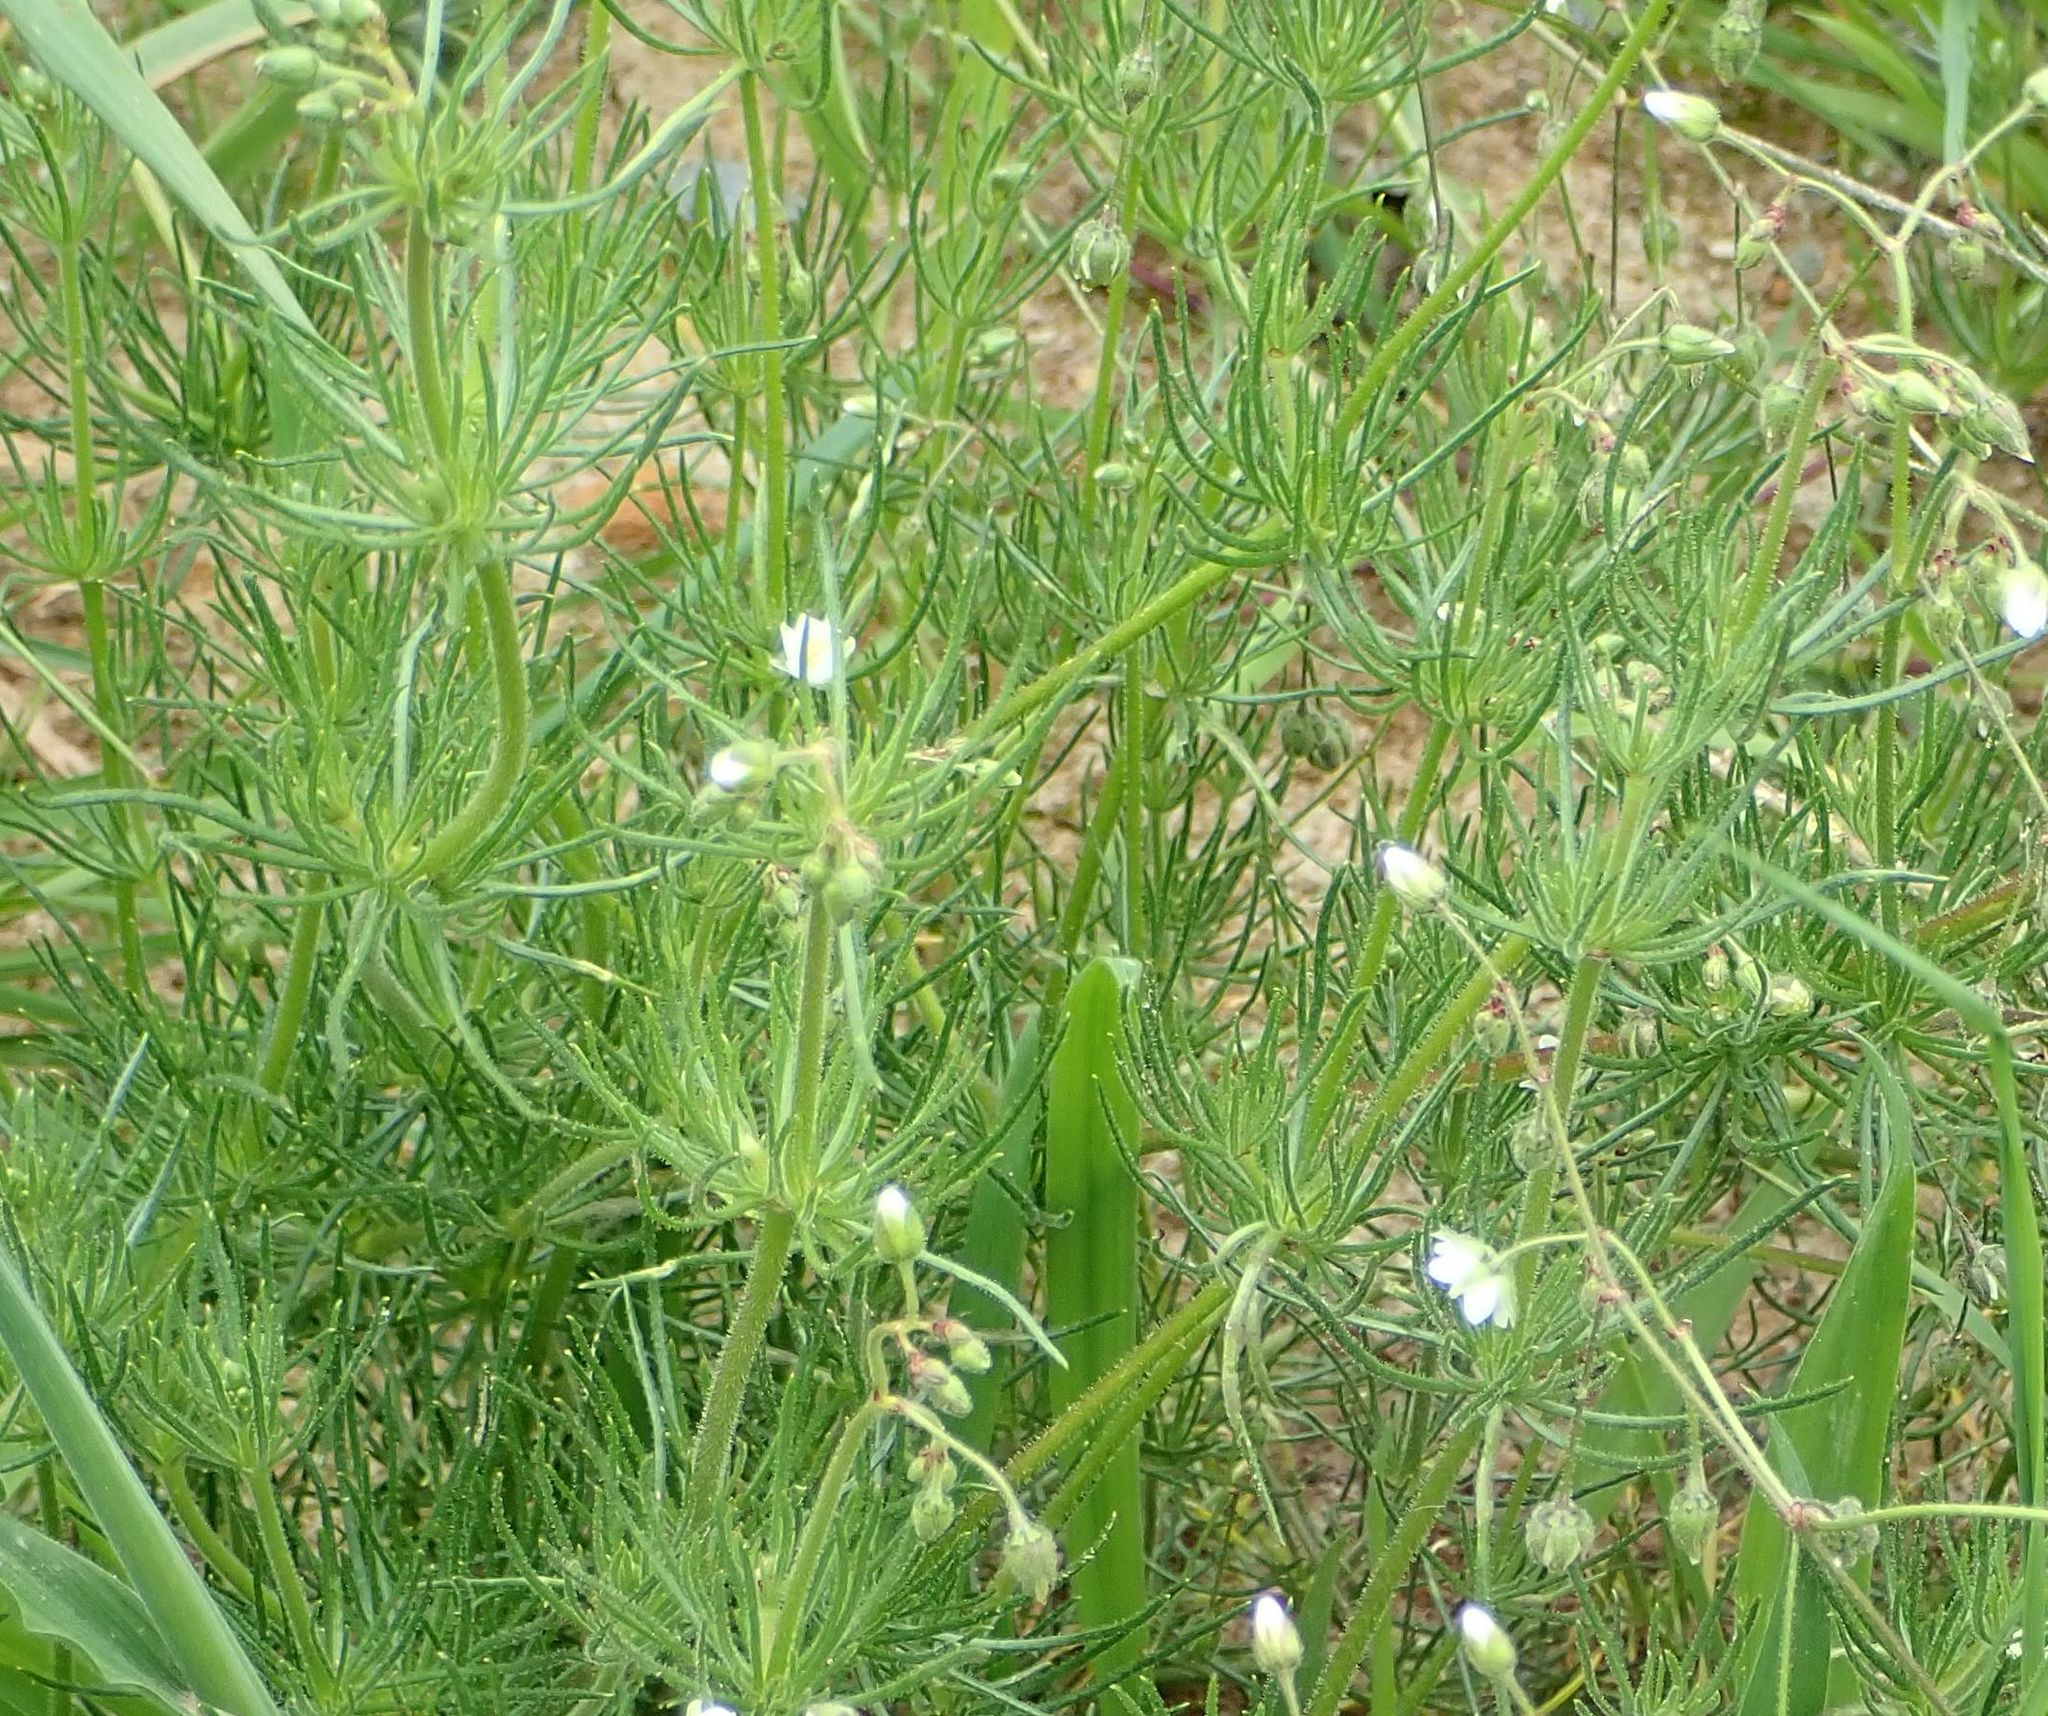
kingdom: Plantae
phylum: Tracheophyta
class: Magnoliopsida
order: Caryophyllales
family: Caryophyllaceae
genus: Spergula
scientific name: Spergula arvensis
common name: Corn spurrey
